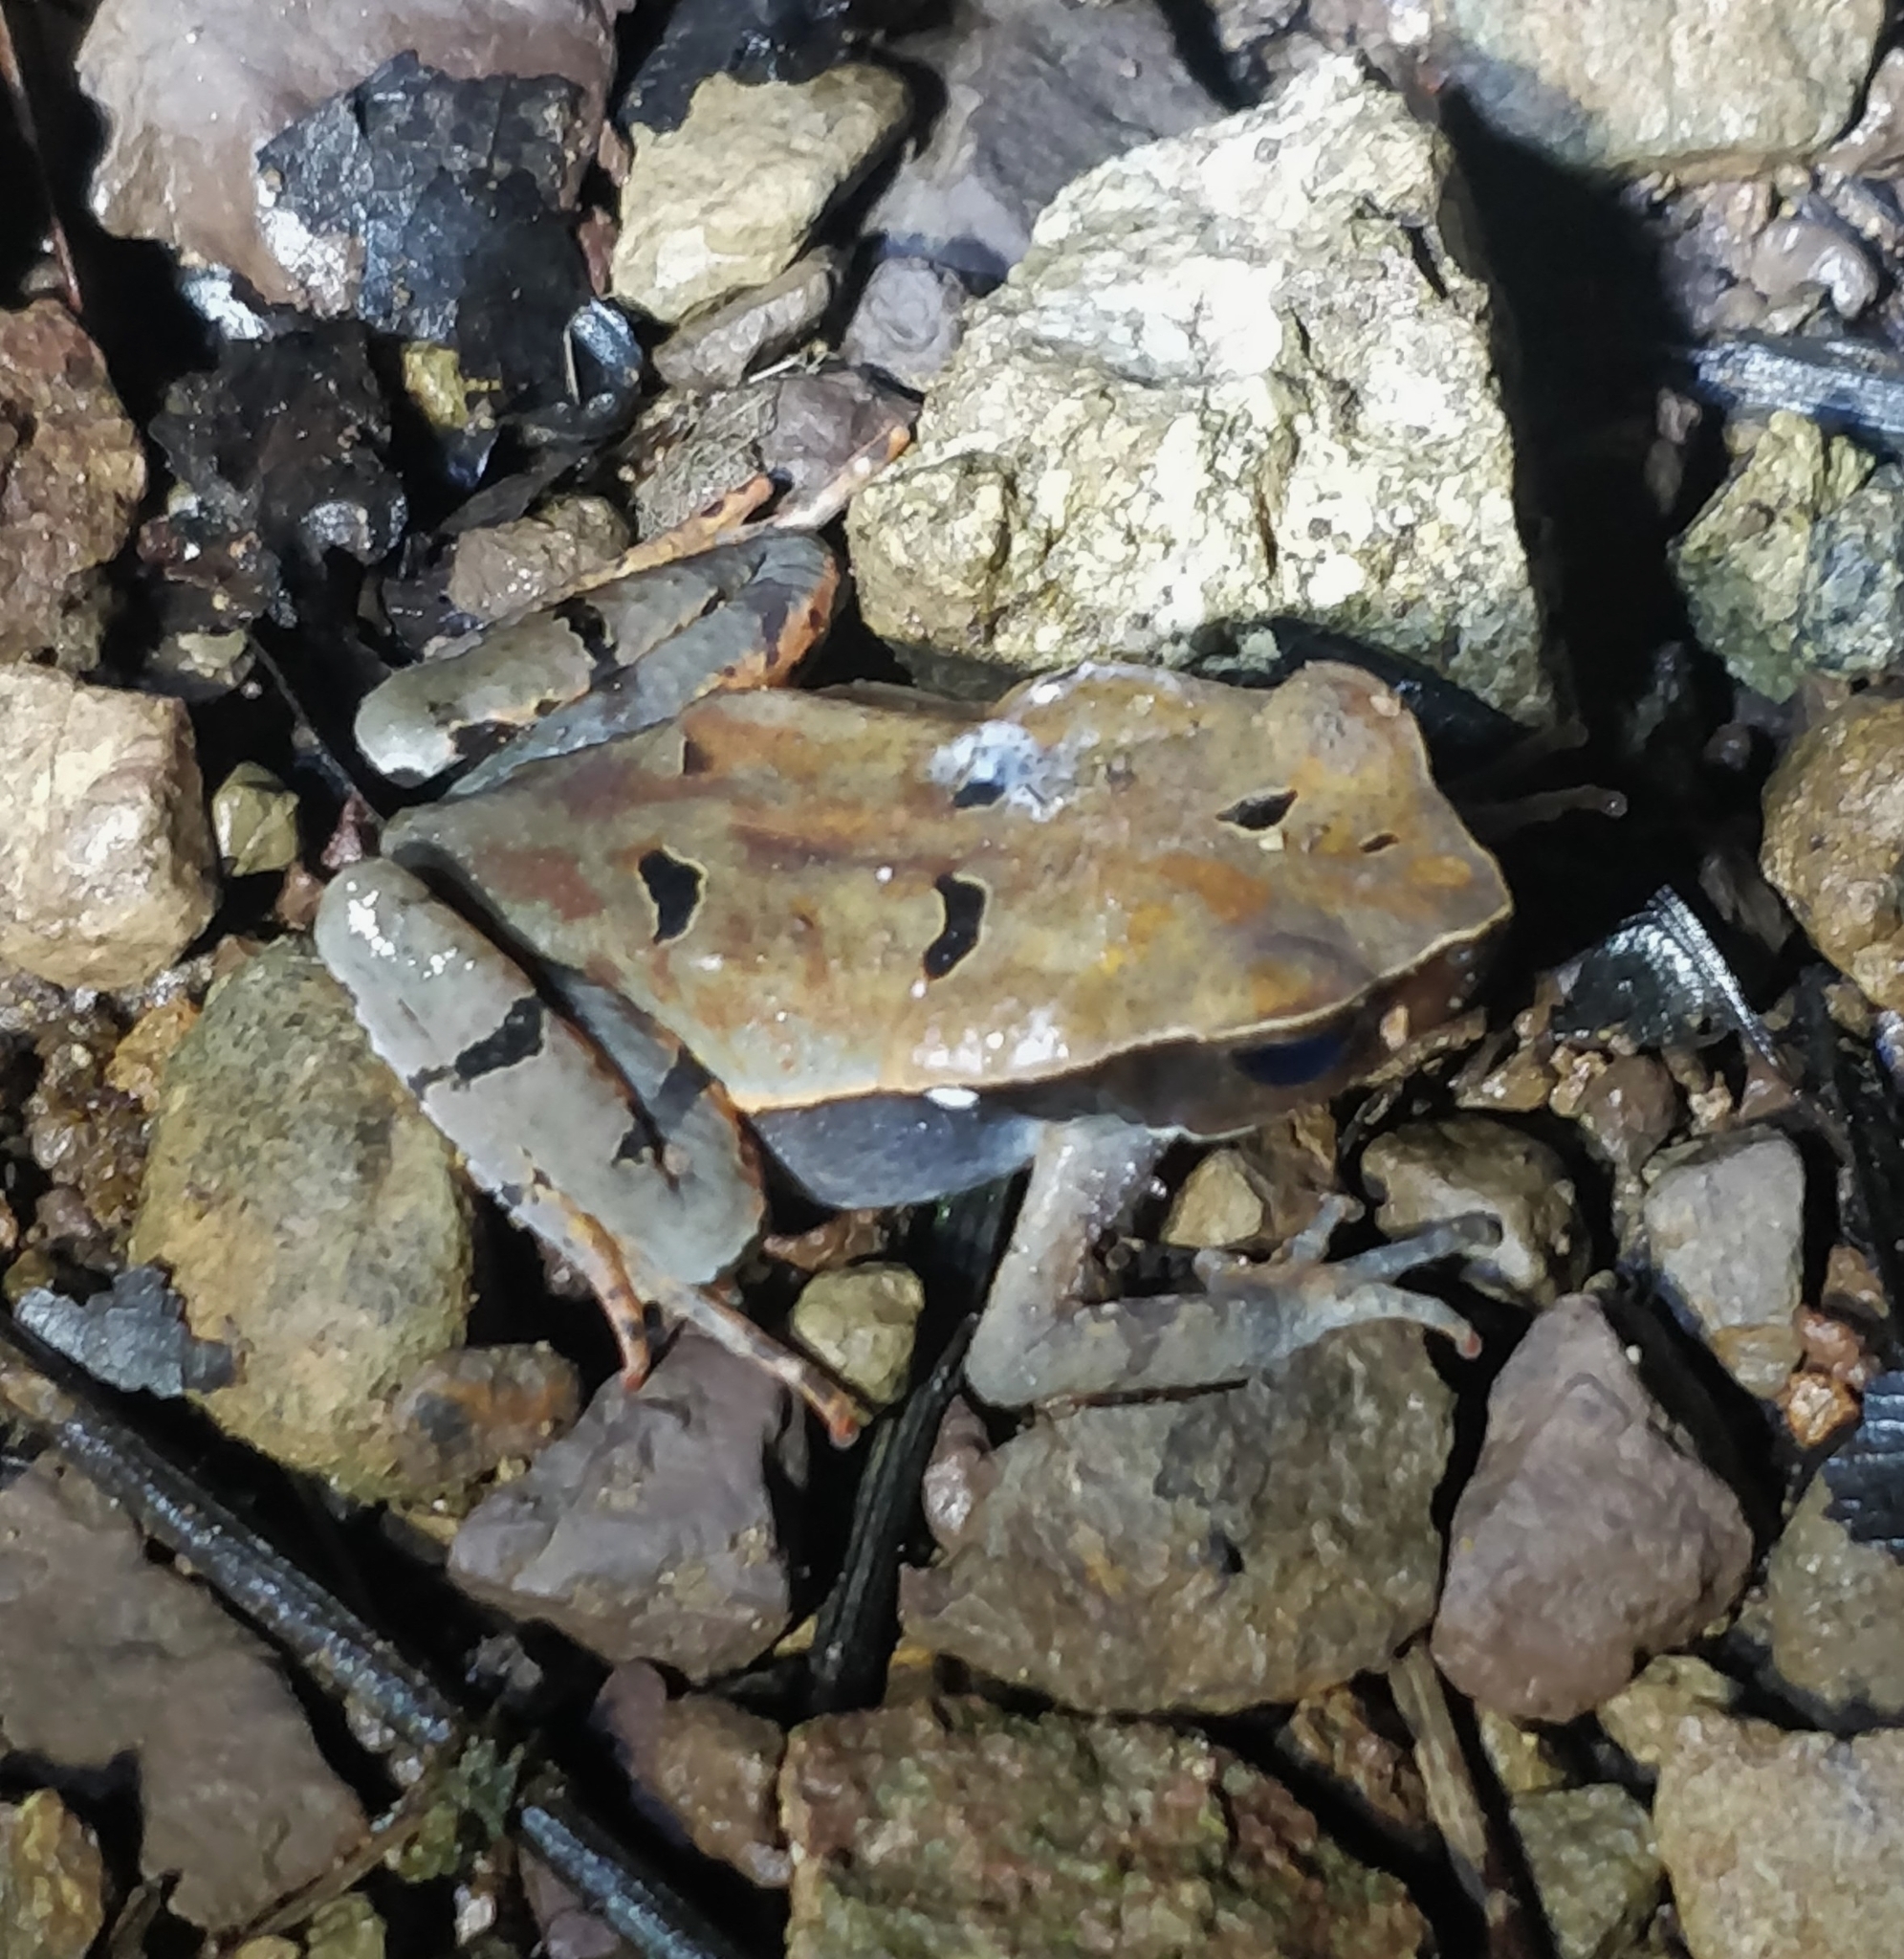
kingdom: Animalia
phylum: Chordata
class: Amphibia
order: Anura
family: Bufonidae
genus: Rhaebo
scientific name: Rhaebo haematiticus
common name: Truando toad
